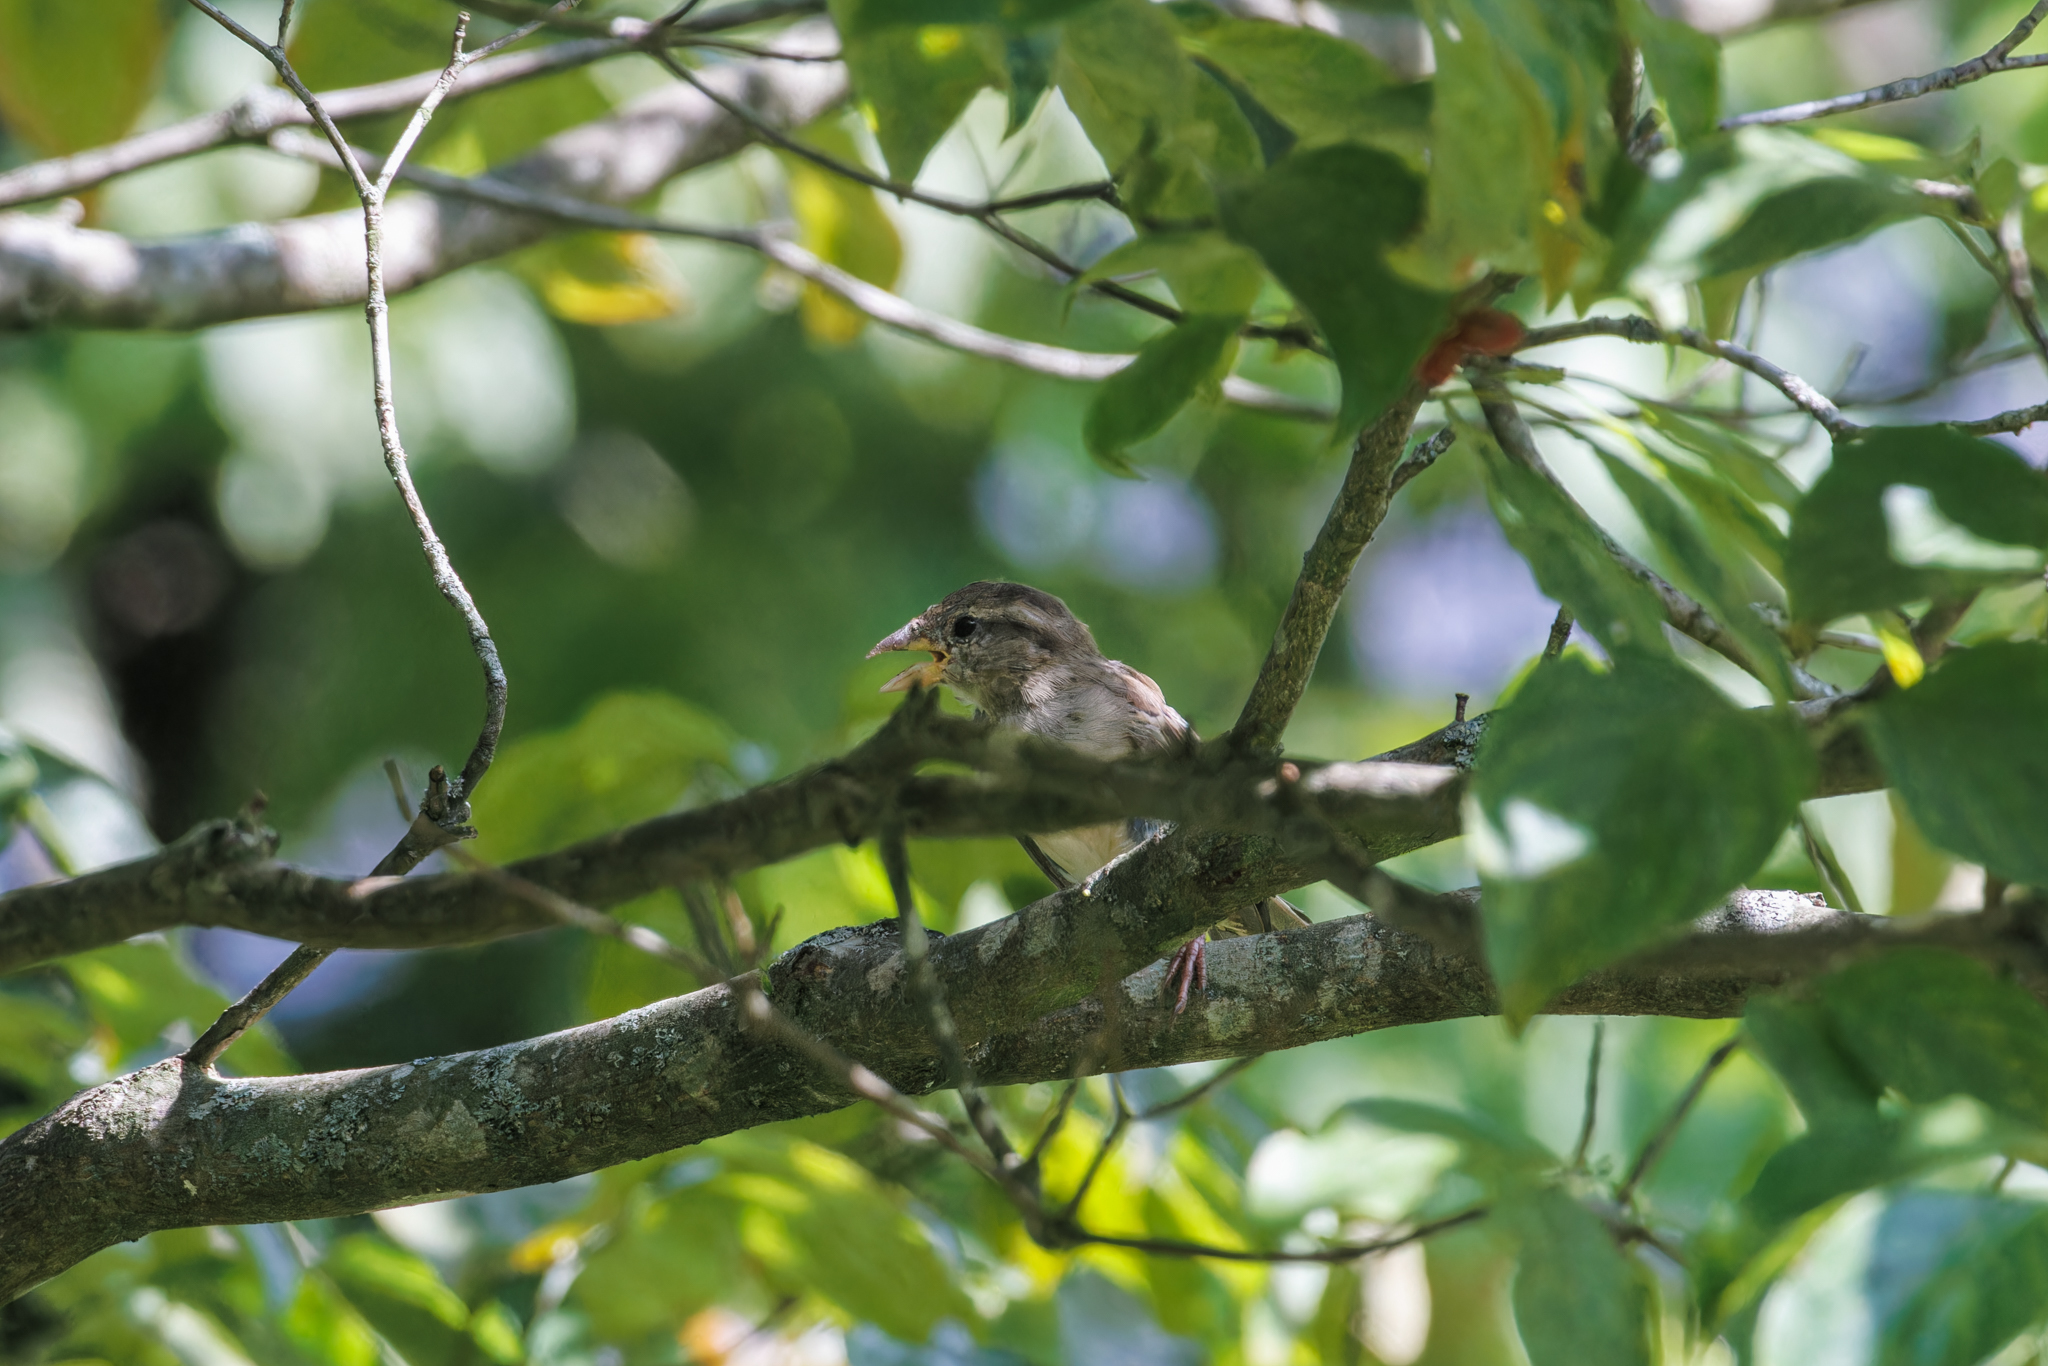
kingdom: Animalia
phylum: Chordata
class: Aves
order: Passeriformes
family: Passeridae
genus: Passer
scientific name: Passer domesticus
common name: House sparrow
